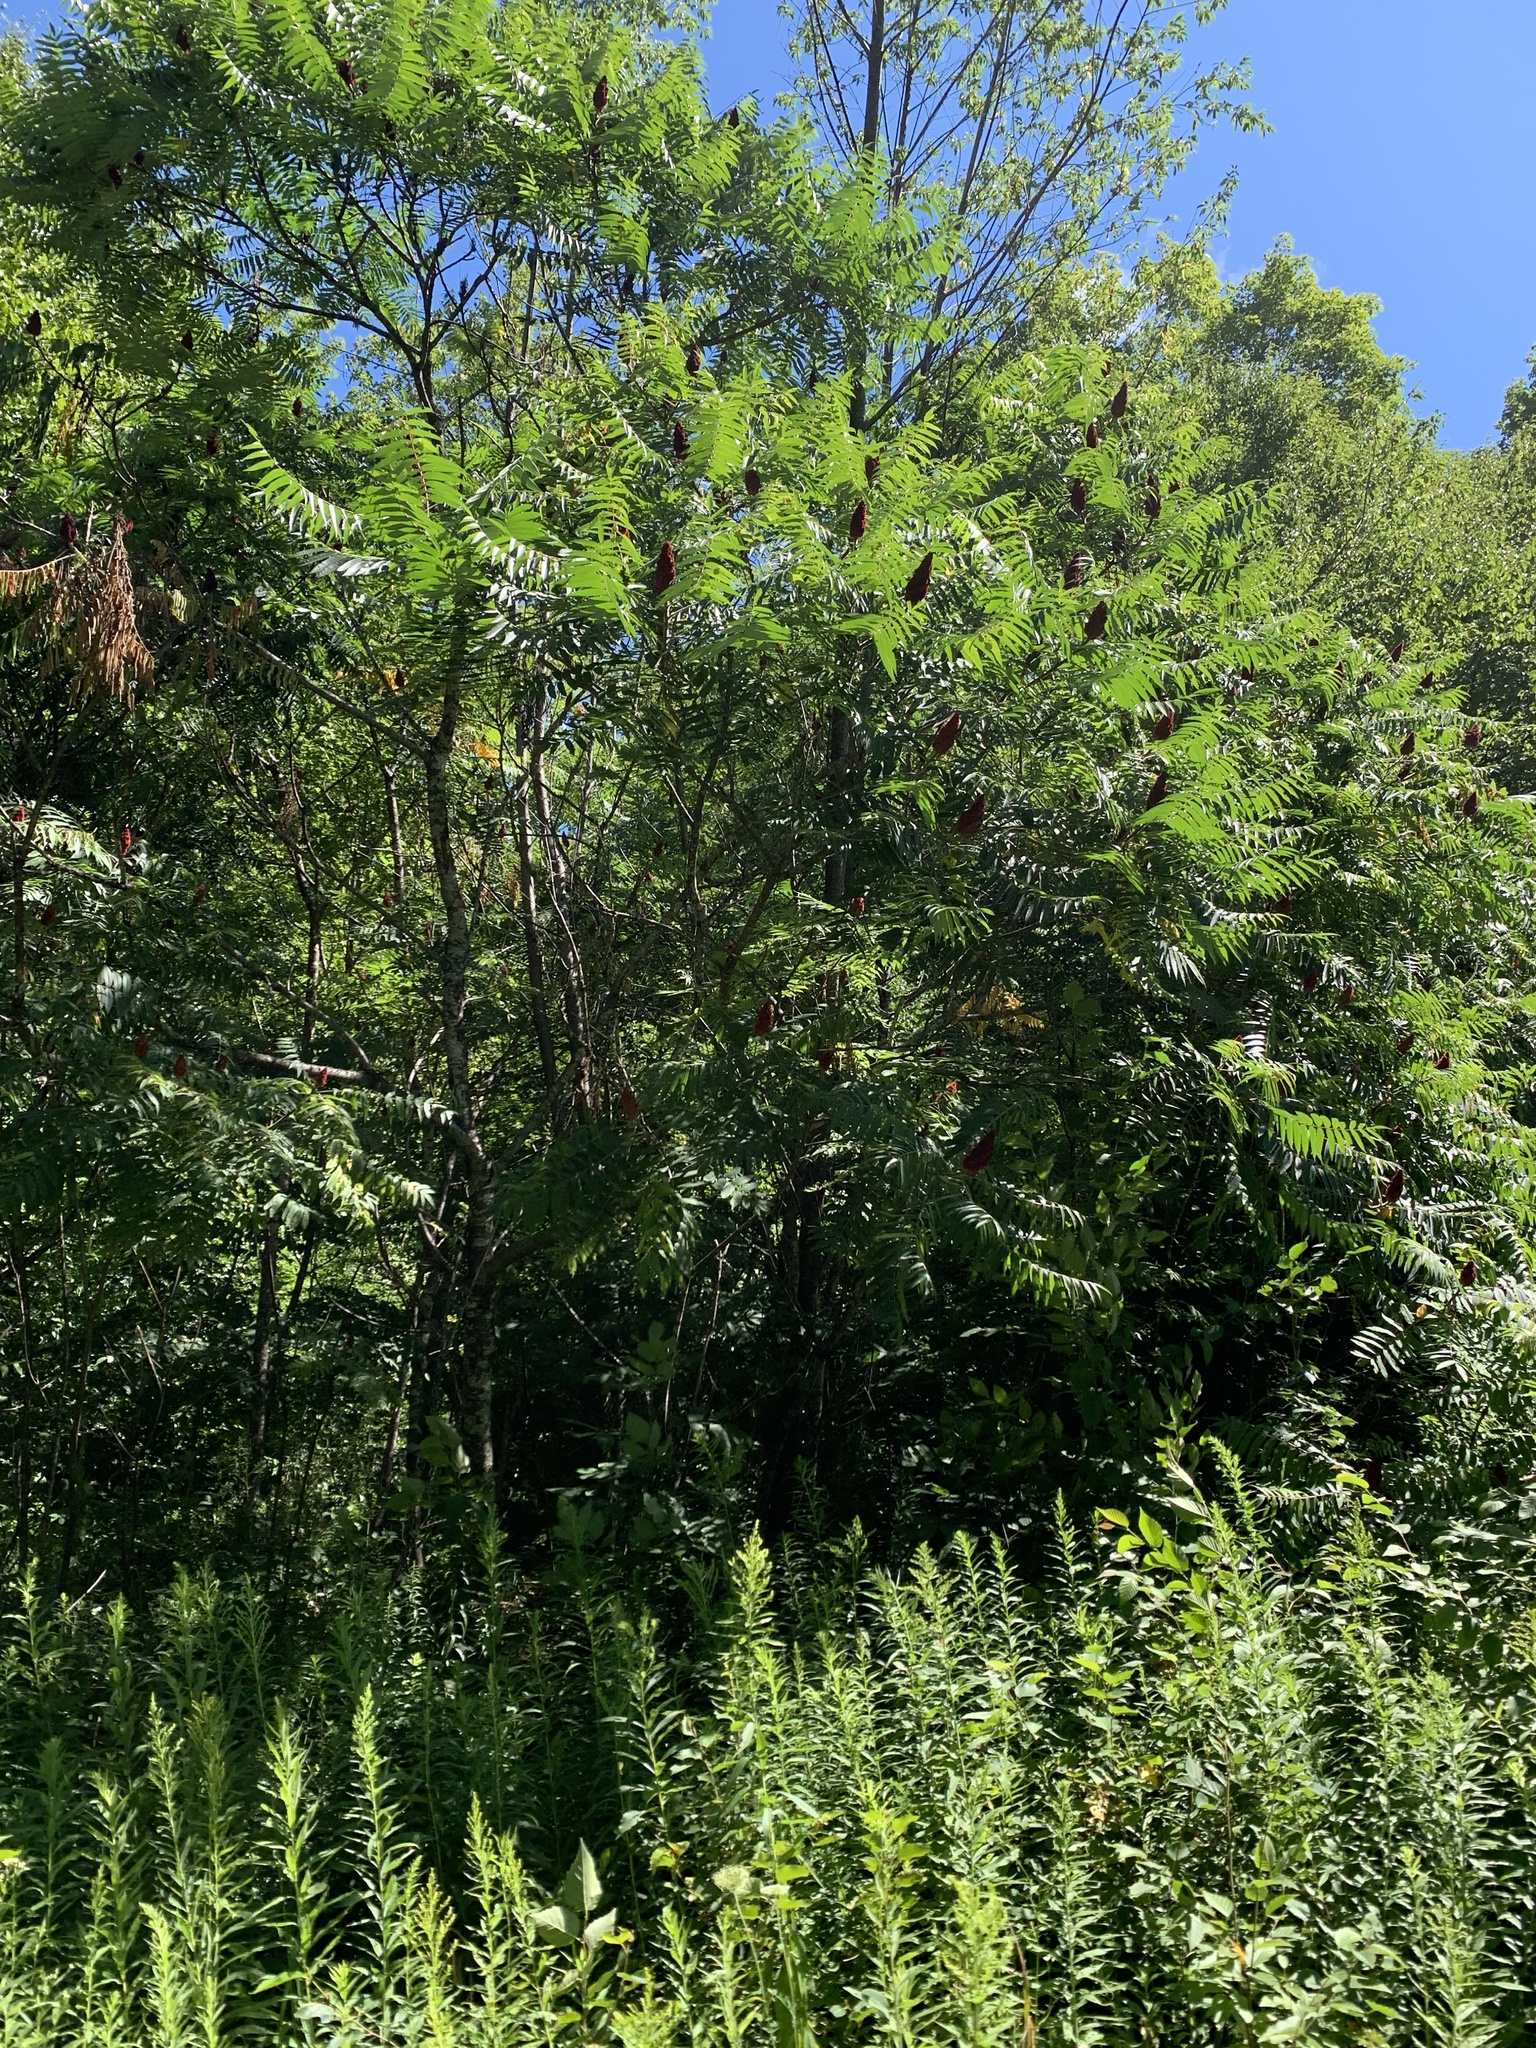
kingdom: Plantae
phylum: Tracheophyta
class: Magnoliopsida
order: Sapindales
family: Anacardiaceae
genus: Rhus
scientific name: Rhus typhina
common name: Staghorn sumac
